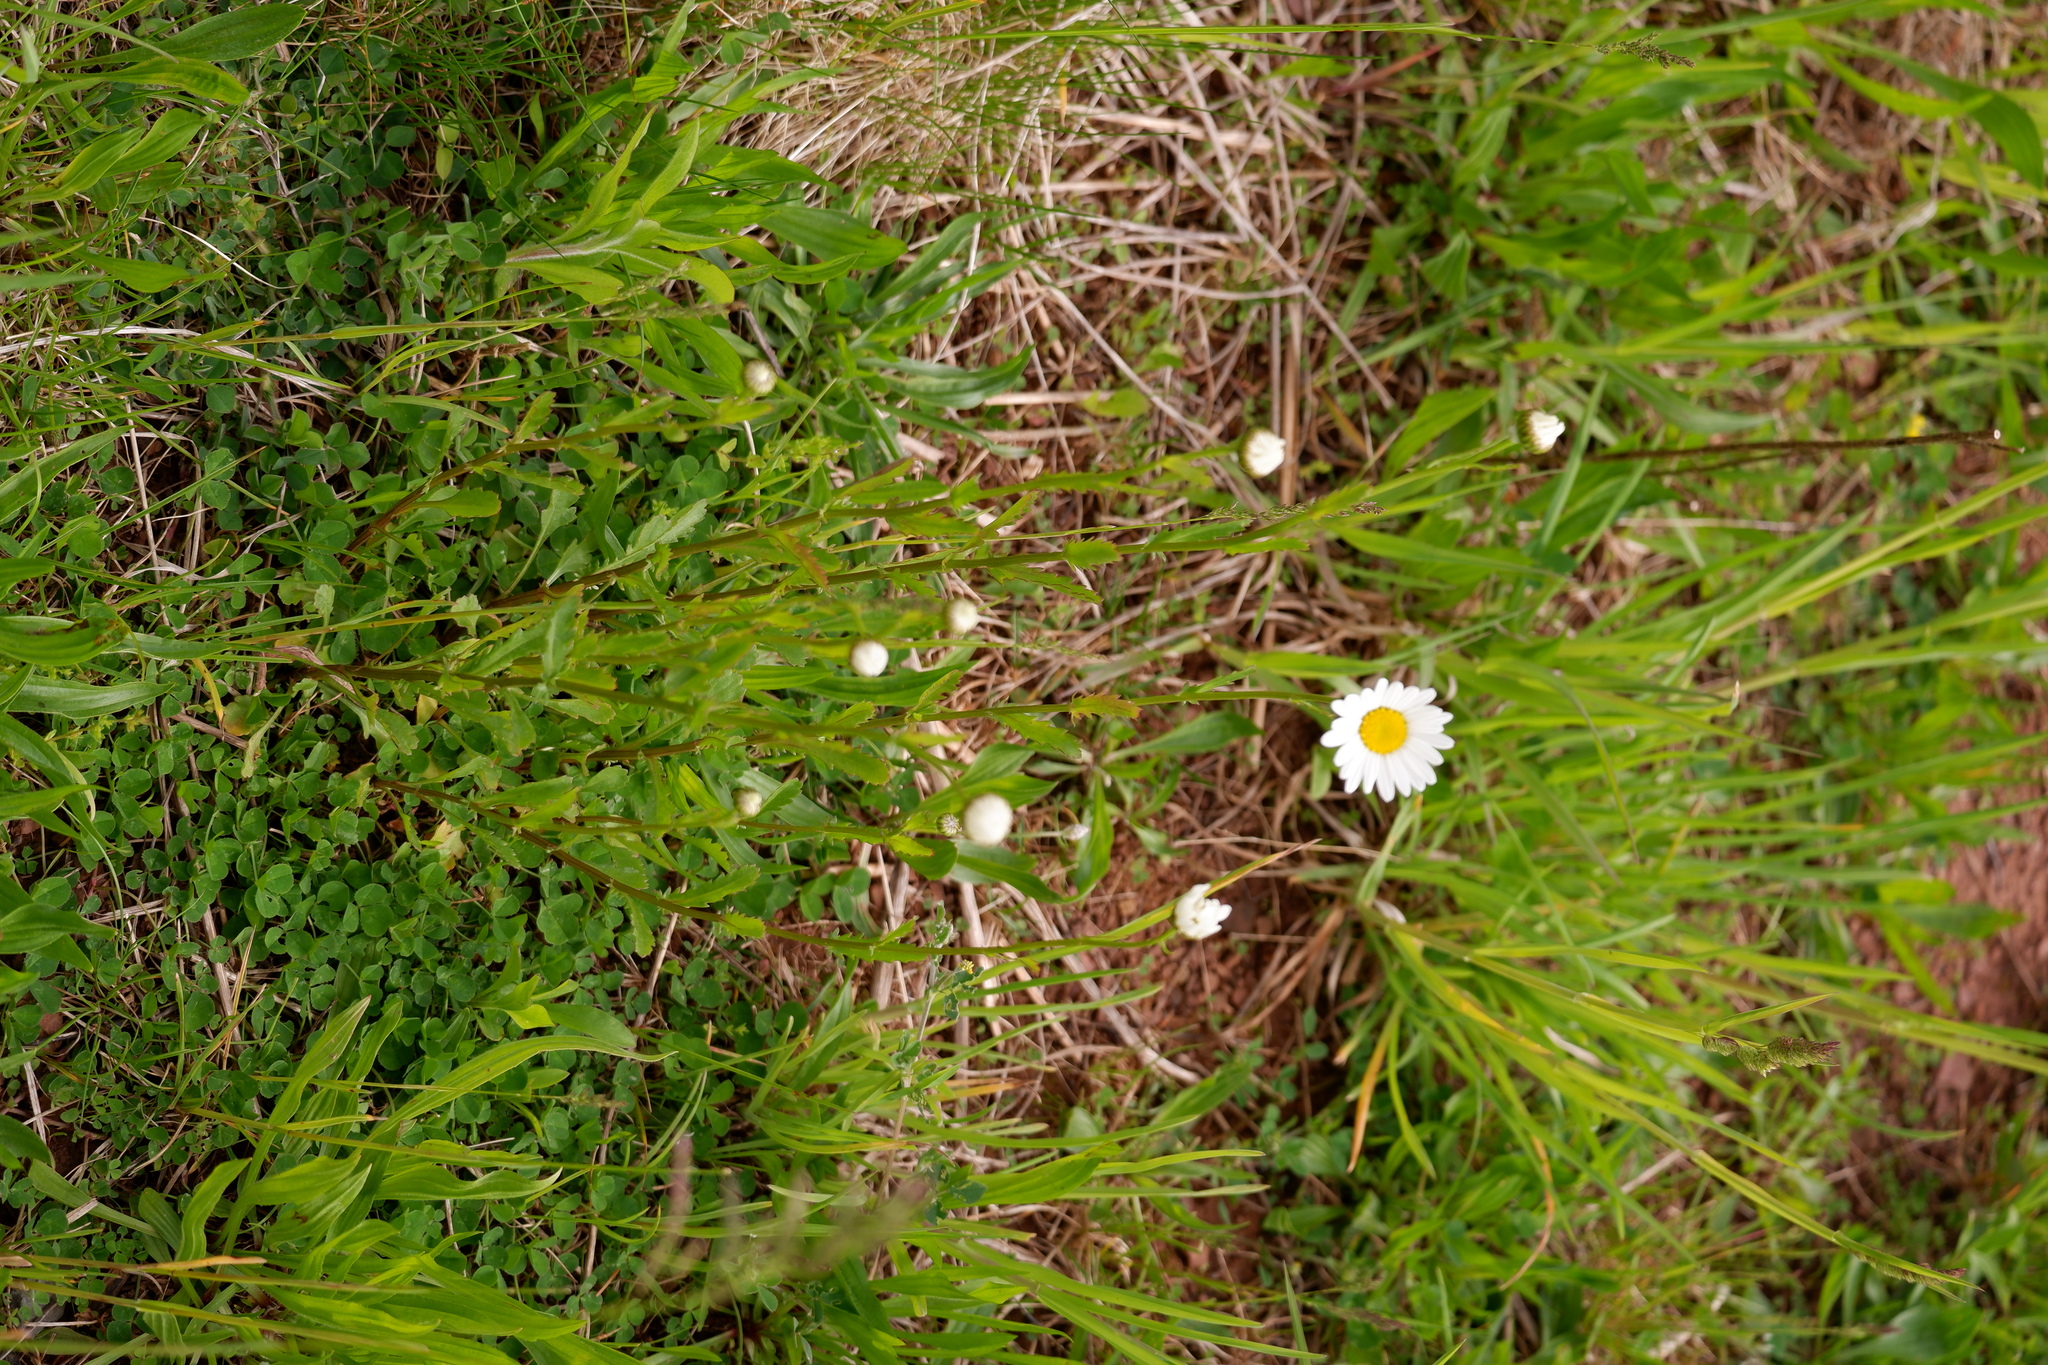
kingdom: Plantae
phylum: Tracheophyta
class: Magnoliopsida
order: Asterales
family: Asteraceae
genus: Leucanthemum
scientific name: Leucanthemum vulgare
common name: Oxeye daisy
